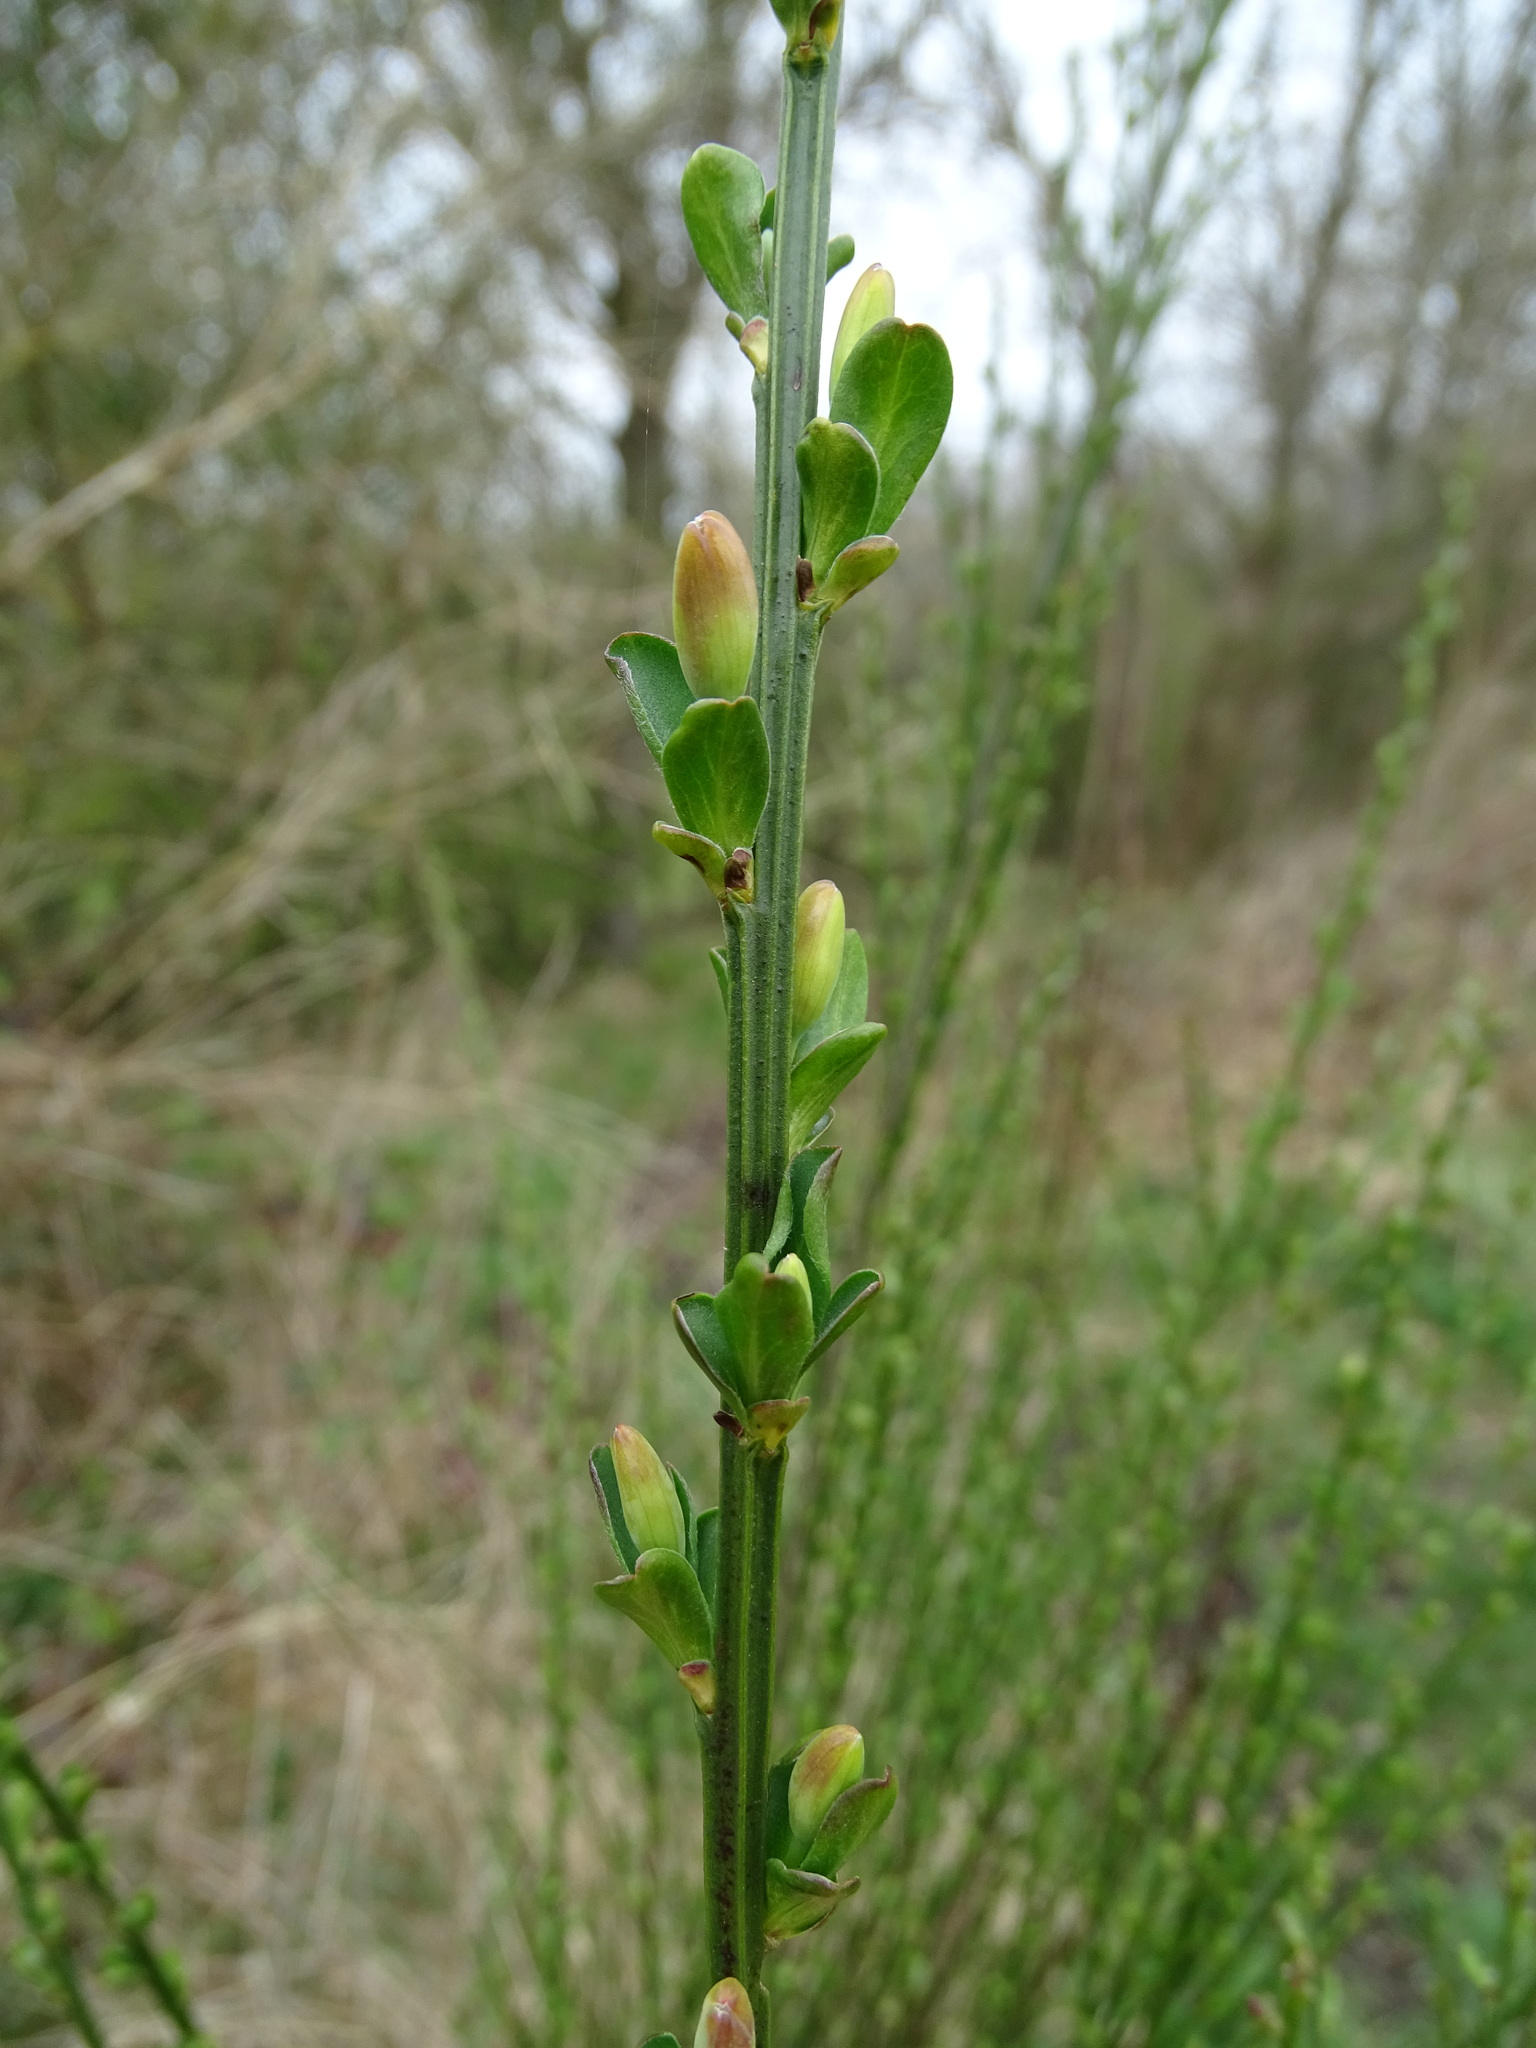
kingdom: Plantae
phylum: Tracheophyta
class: Magnoliopsida
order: Fabales
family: Fabaceae
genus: Cytisus
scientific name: Cytisus scoparius
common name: Scotch broom
